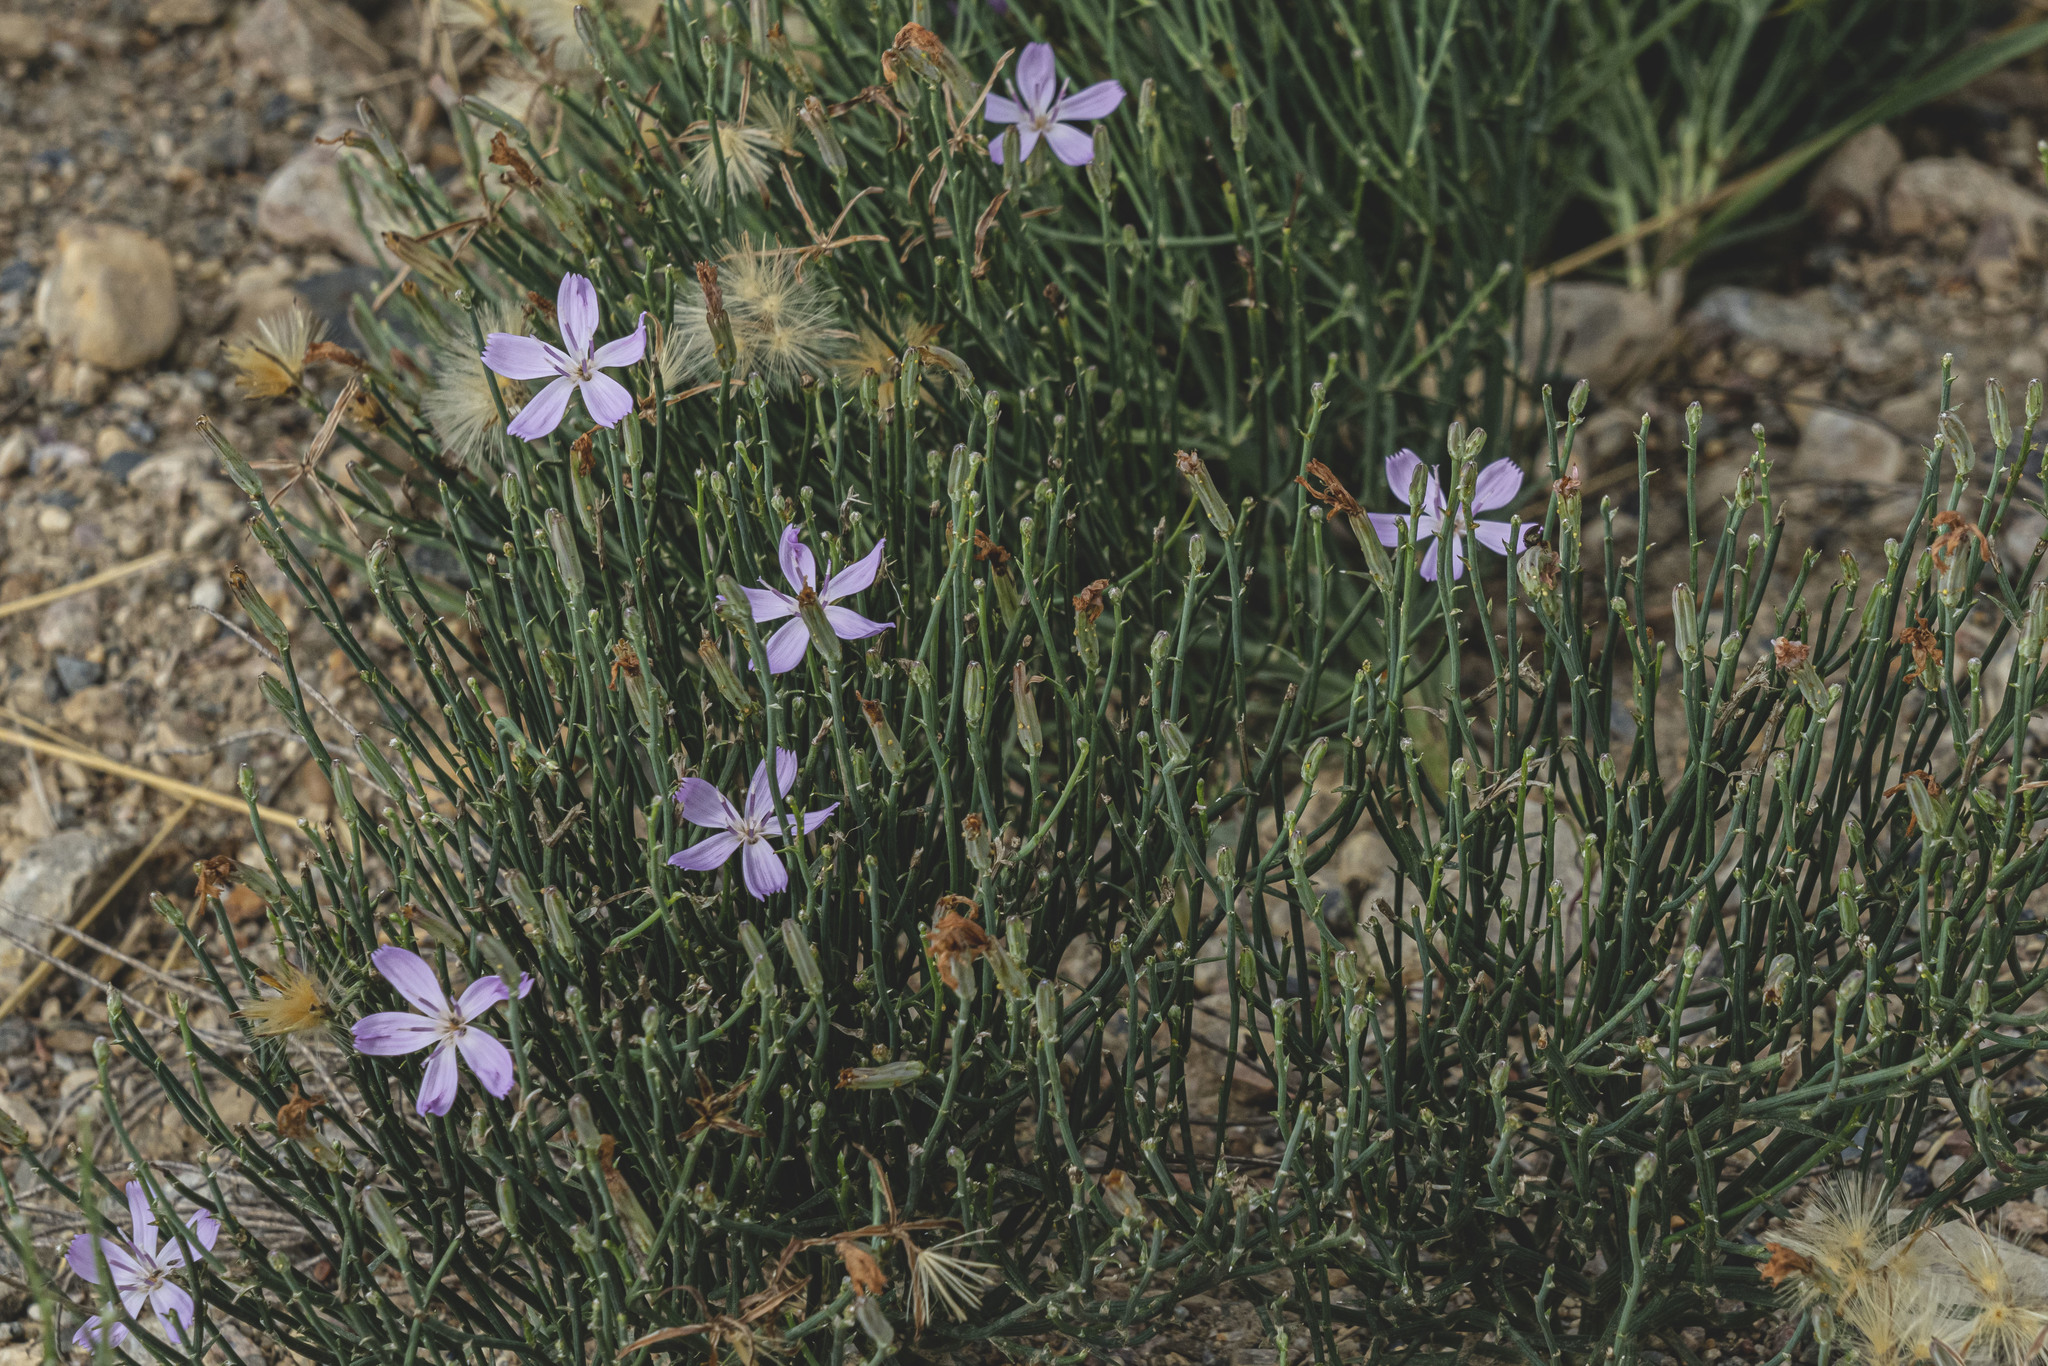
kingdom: Plantae
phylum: Tracheophyta
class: Magnoliopsida
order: Asterales
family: Asteraceae
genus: Lygodesmia
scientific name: Lygodesmia juncea
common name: Common skeletonweed
